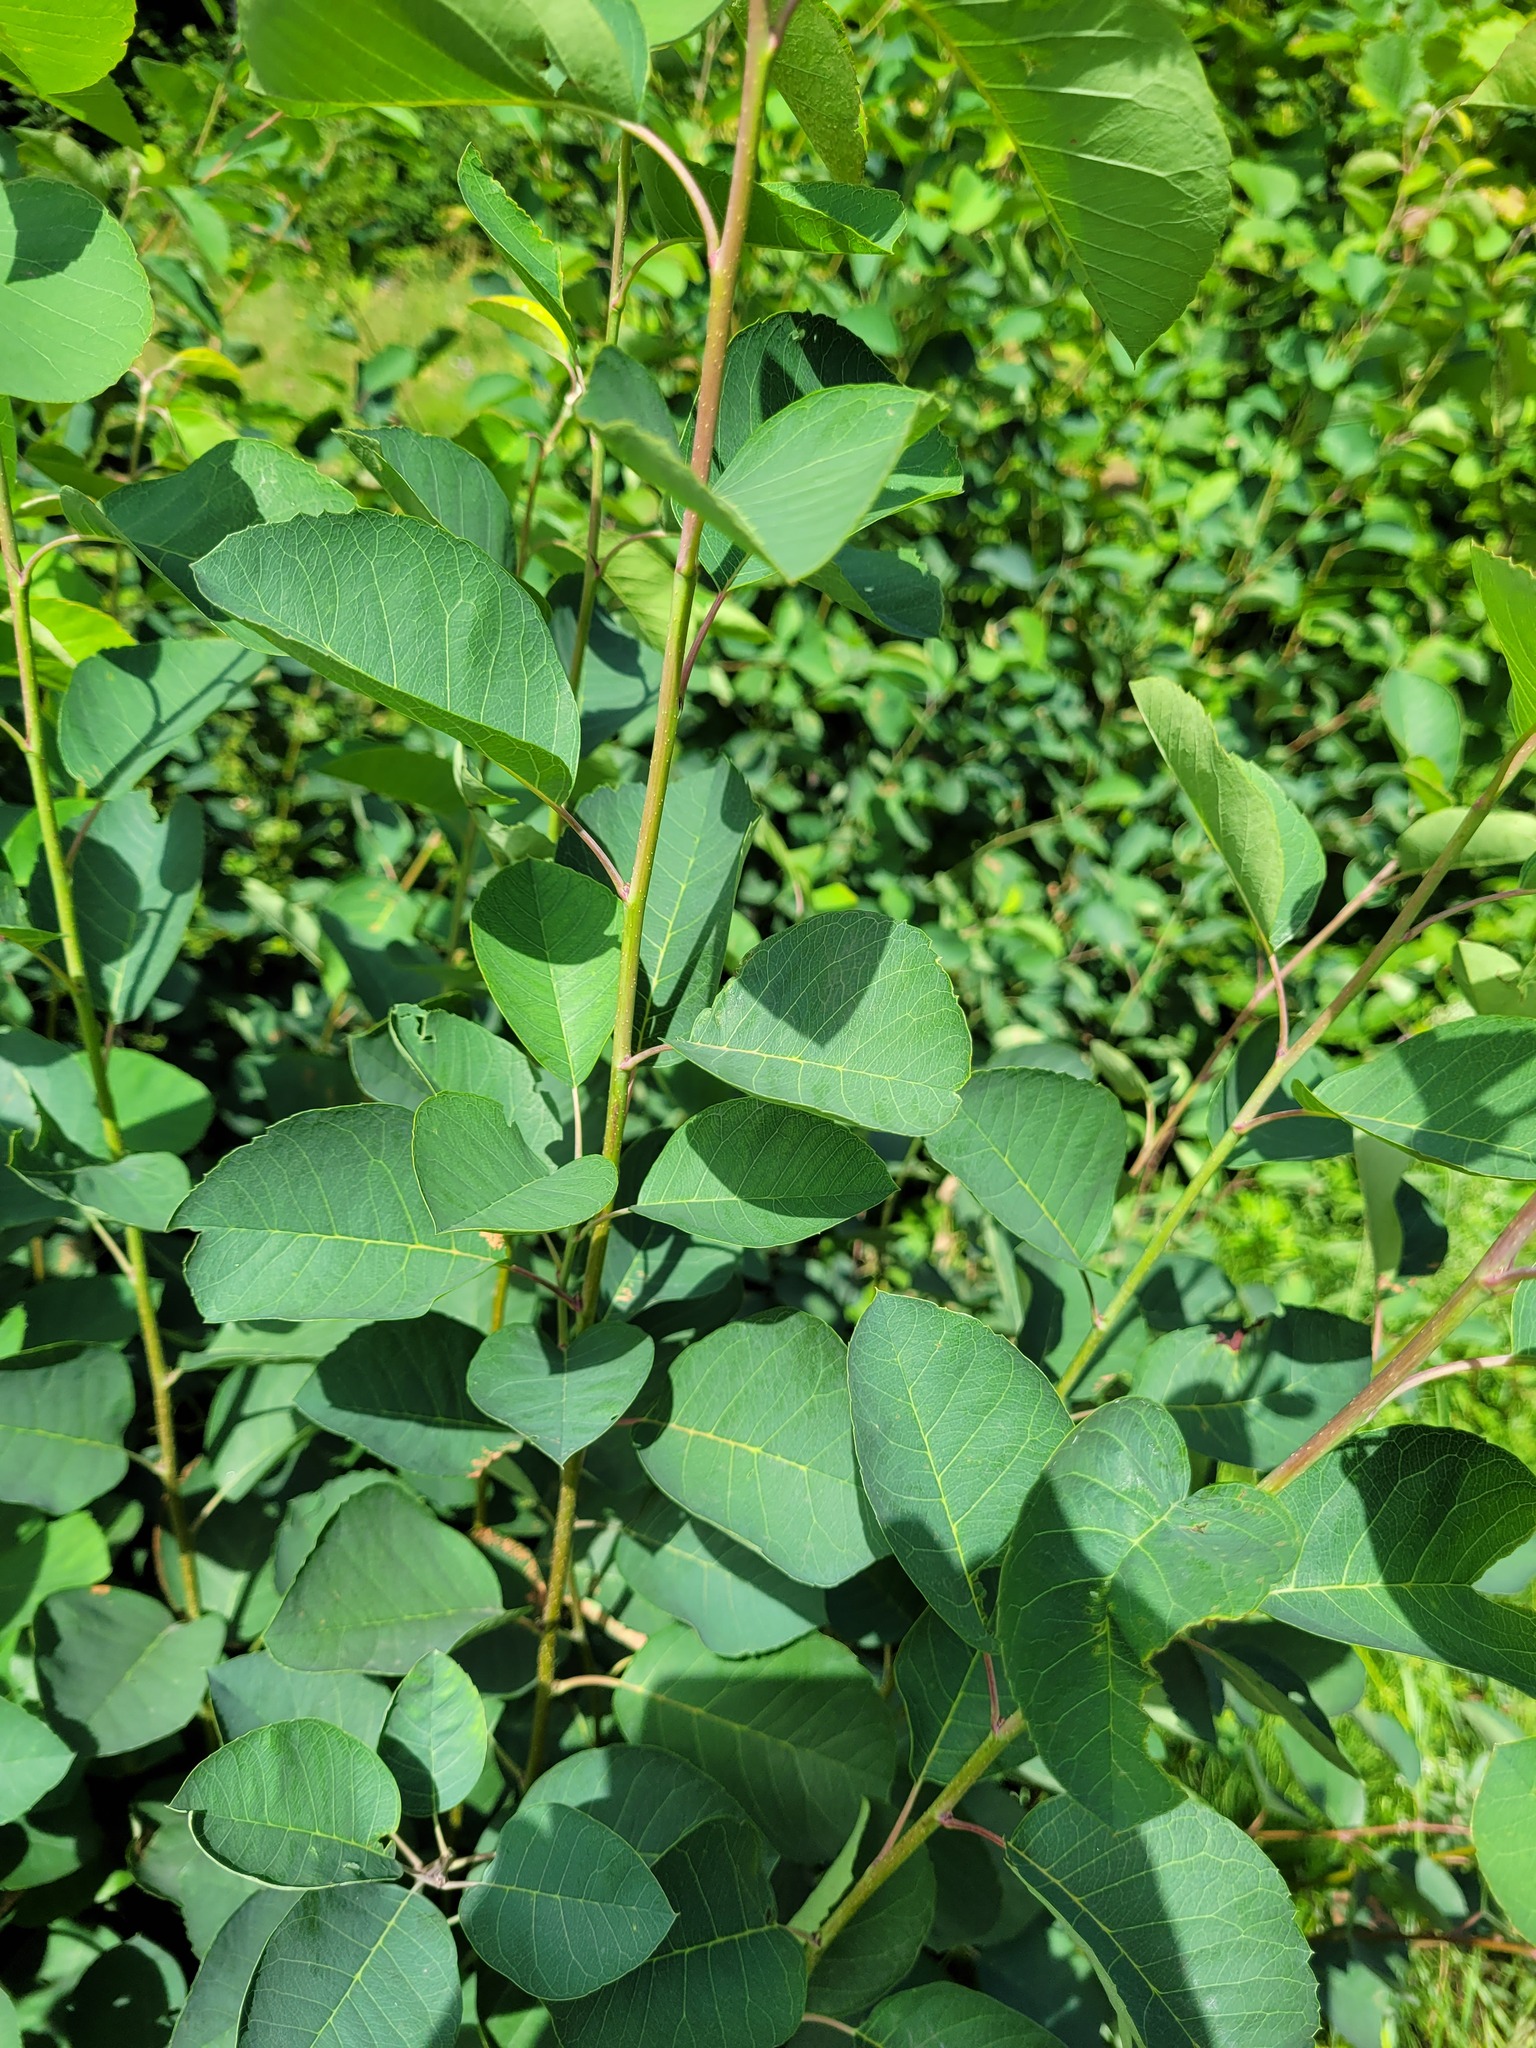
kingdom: Plantae
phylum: Tracheophyta
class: Magnoliopsida
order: Rosales
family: Rosaceae
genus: Amelanchier
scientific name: Amelanchier
